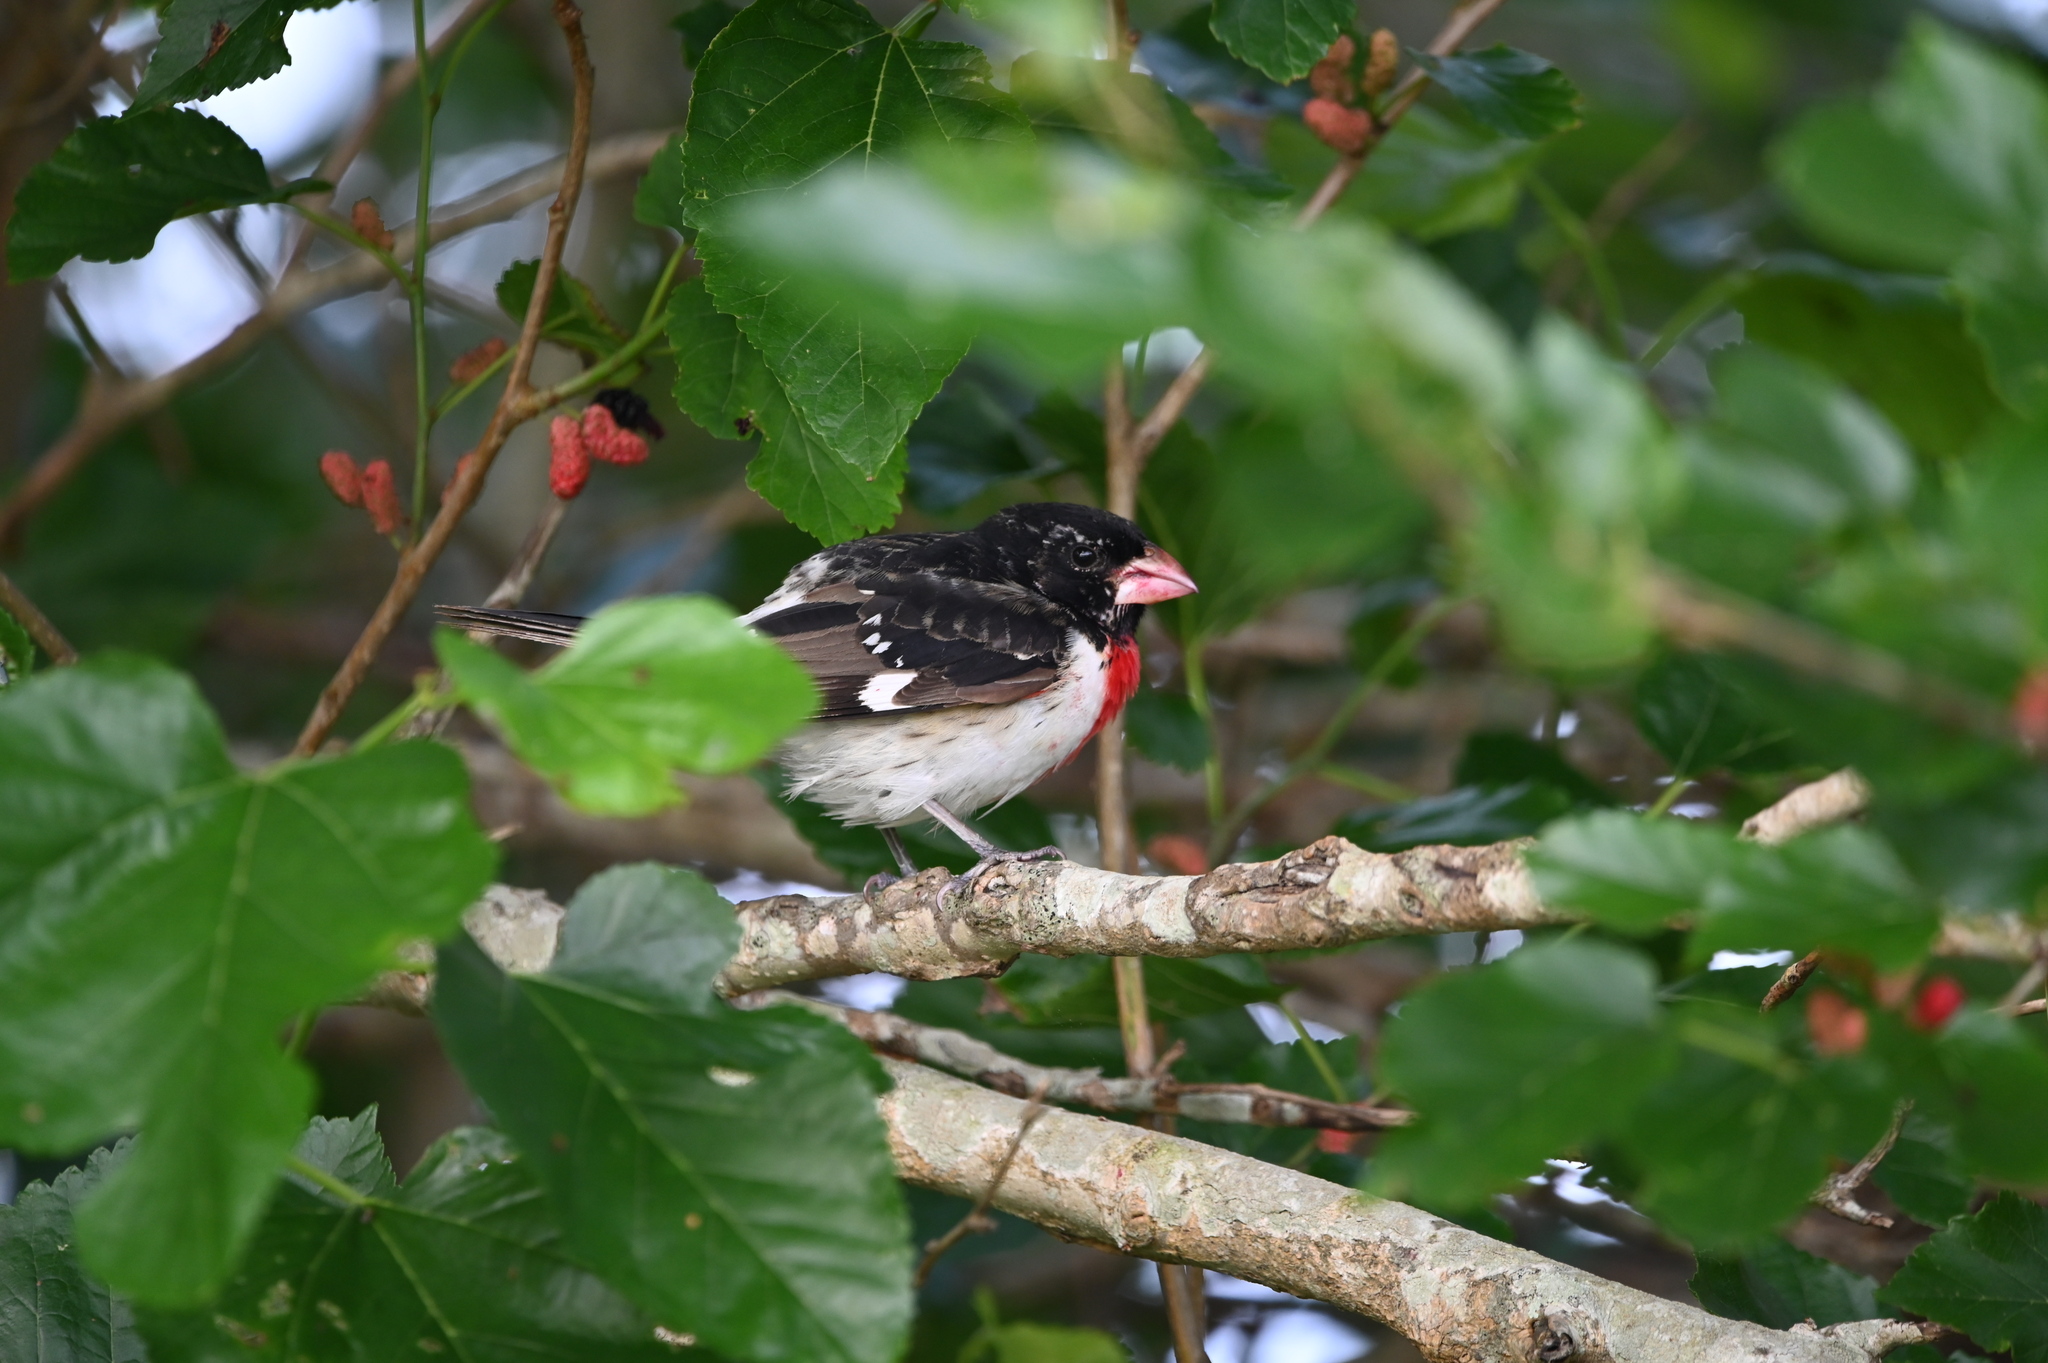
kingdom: Animalia
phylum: Chordata
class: Aves
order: Passeriformes
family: Cardinalidae
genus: Pheucticus
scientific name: Pheucticus ludovicianus
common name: Rose-breasted grosbeak
